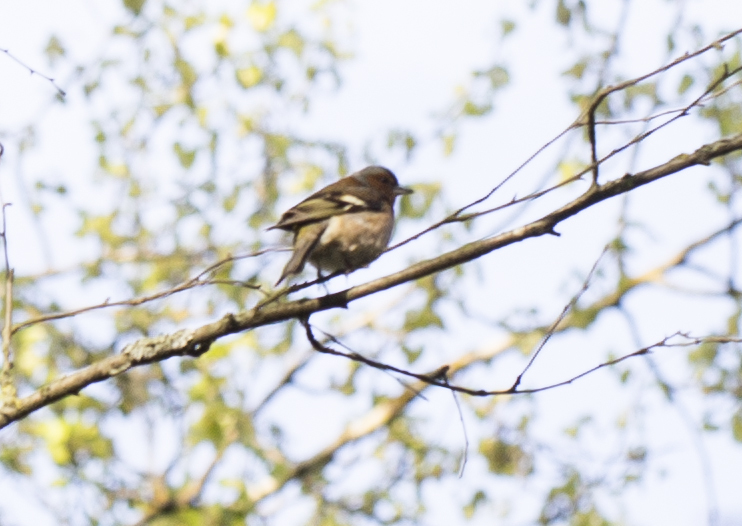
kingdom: Animalia
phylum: Chordata
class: Aves
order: Passeriformes
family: Fringillidae
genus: Fringilla
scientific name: Fringilla coelebs
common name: Common chaffinch
